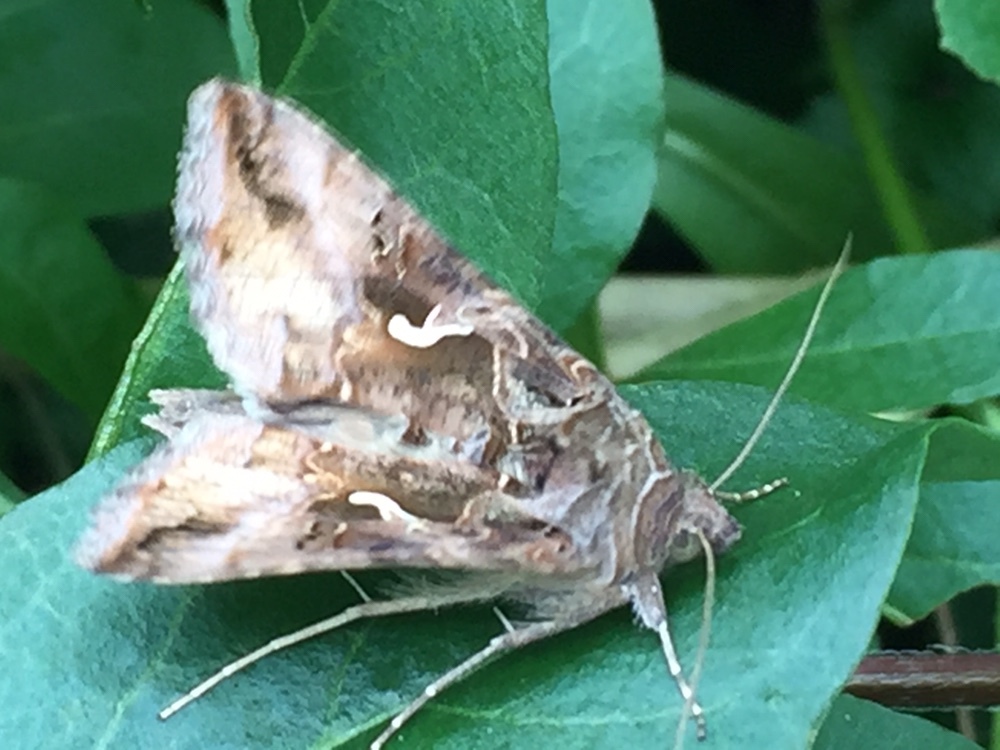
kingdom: Animalia
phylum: Arthropoda
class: Insecta
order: Lepidoptera
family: Noctuidae
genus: Autographa
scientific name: Autographa gamma
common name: Silver y
